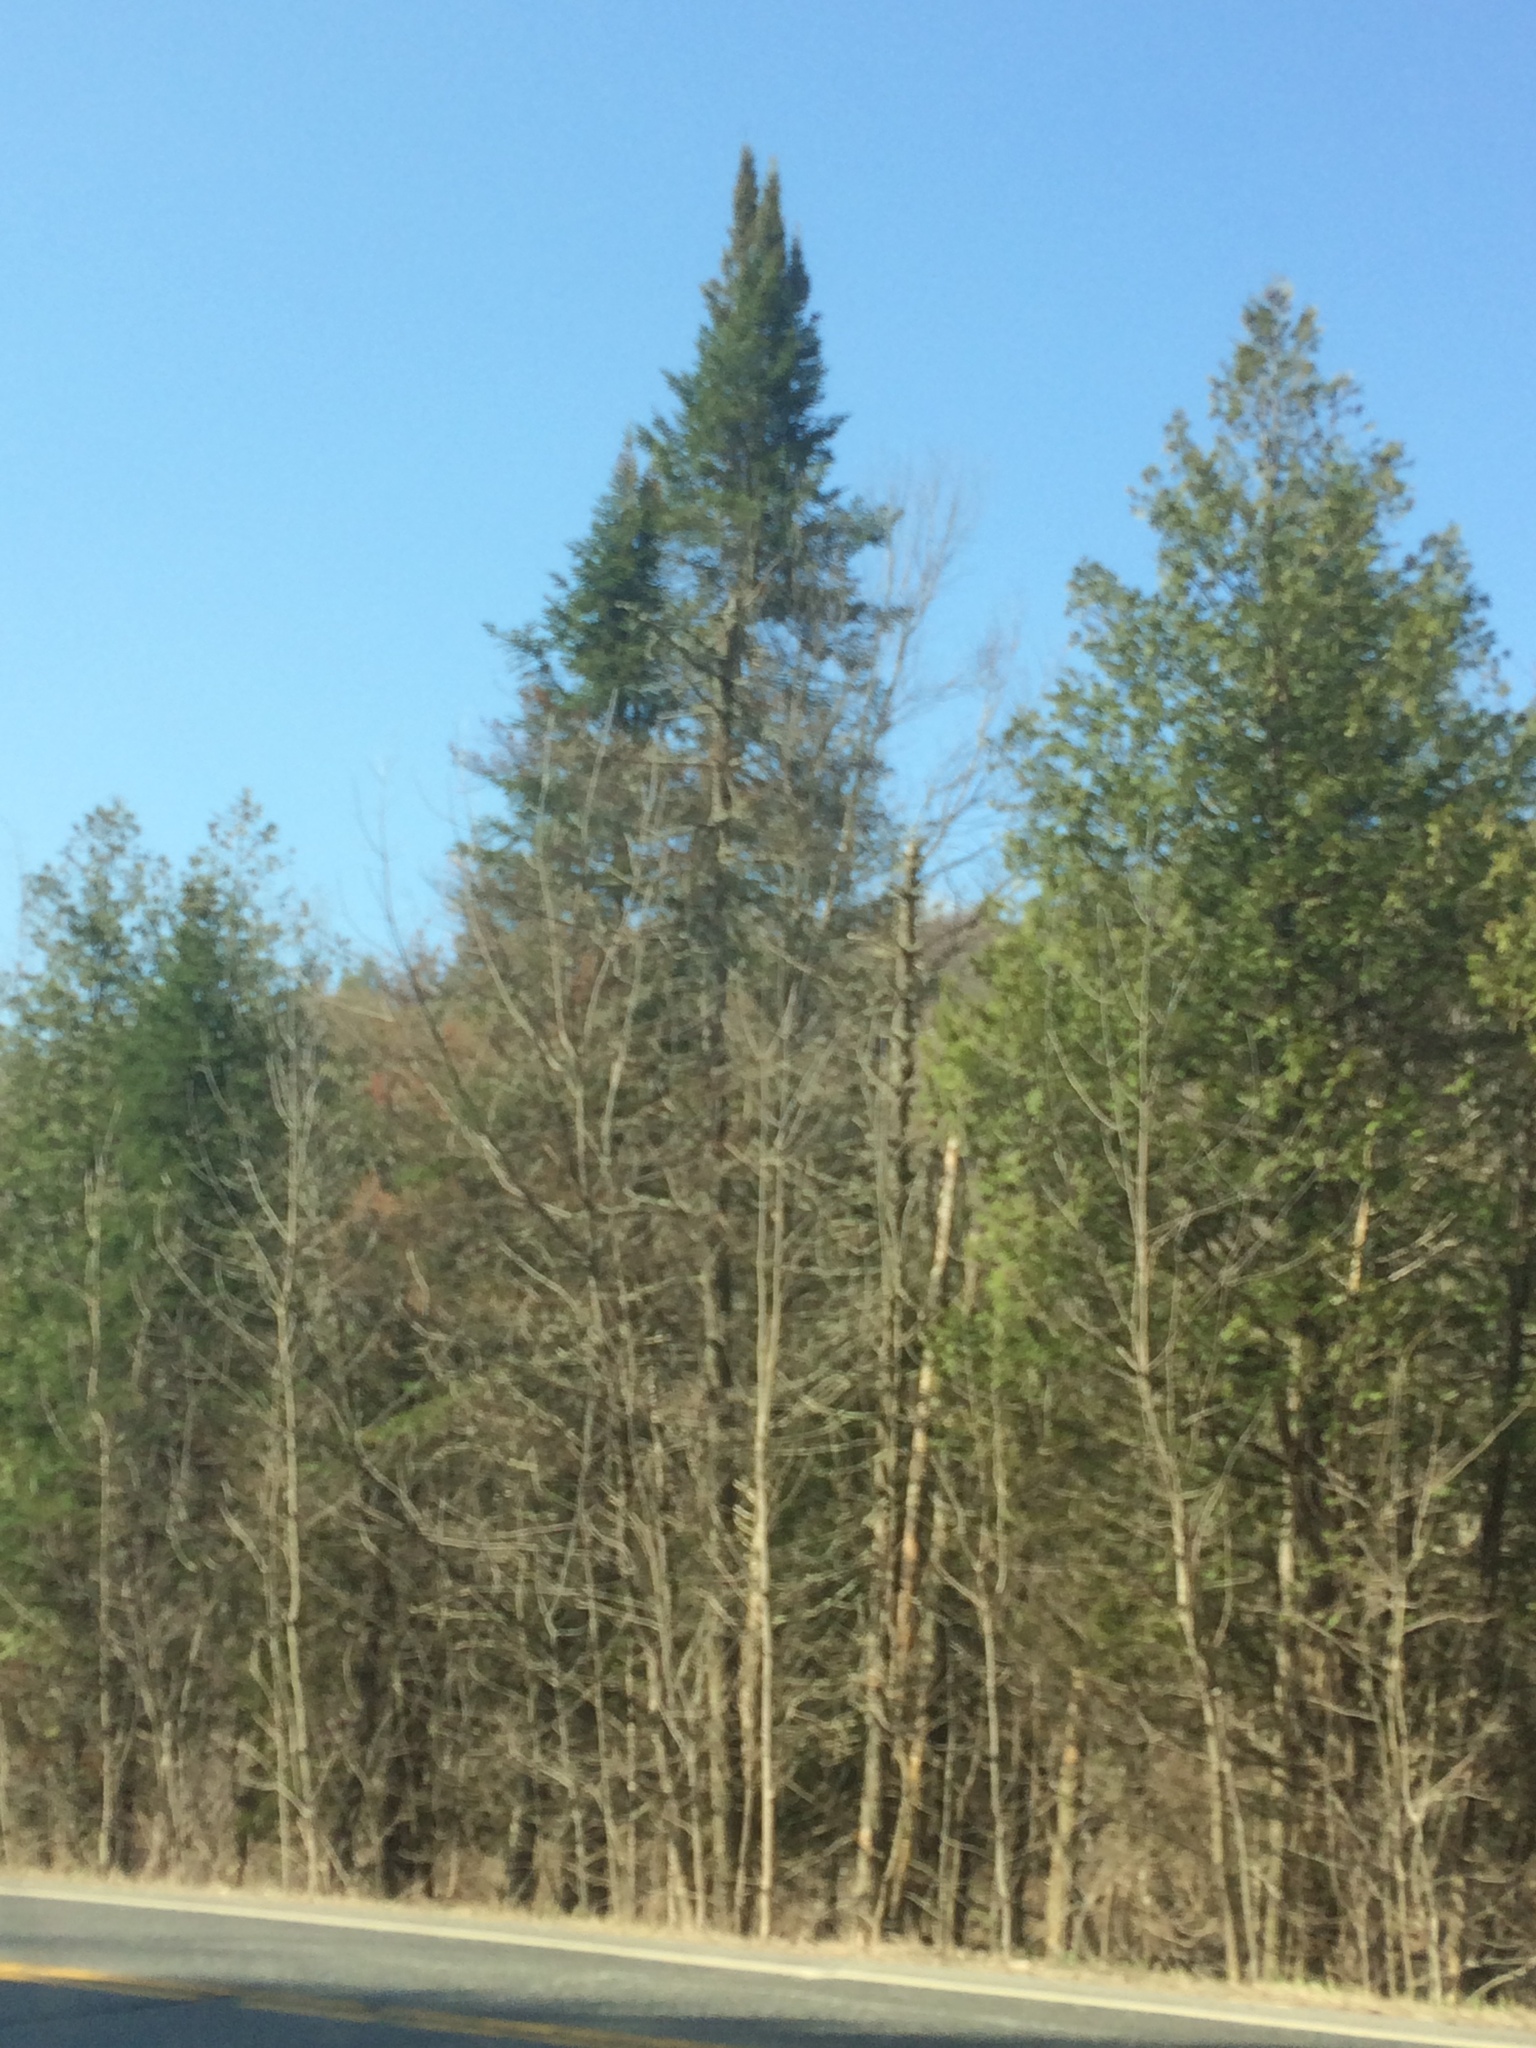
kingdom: Plantae
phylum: Tracheophyta
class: Pinopsida
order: Pinales
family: Pinaceae
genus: Abies
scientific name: Abies balsamea
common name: Balsam fir
